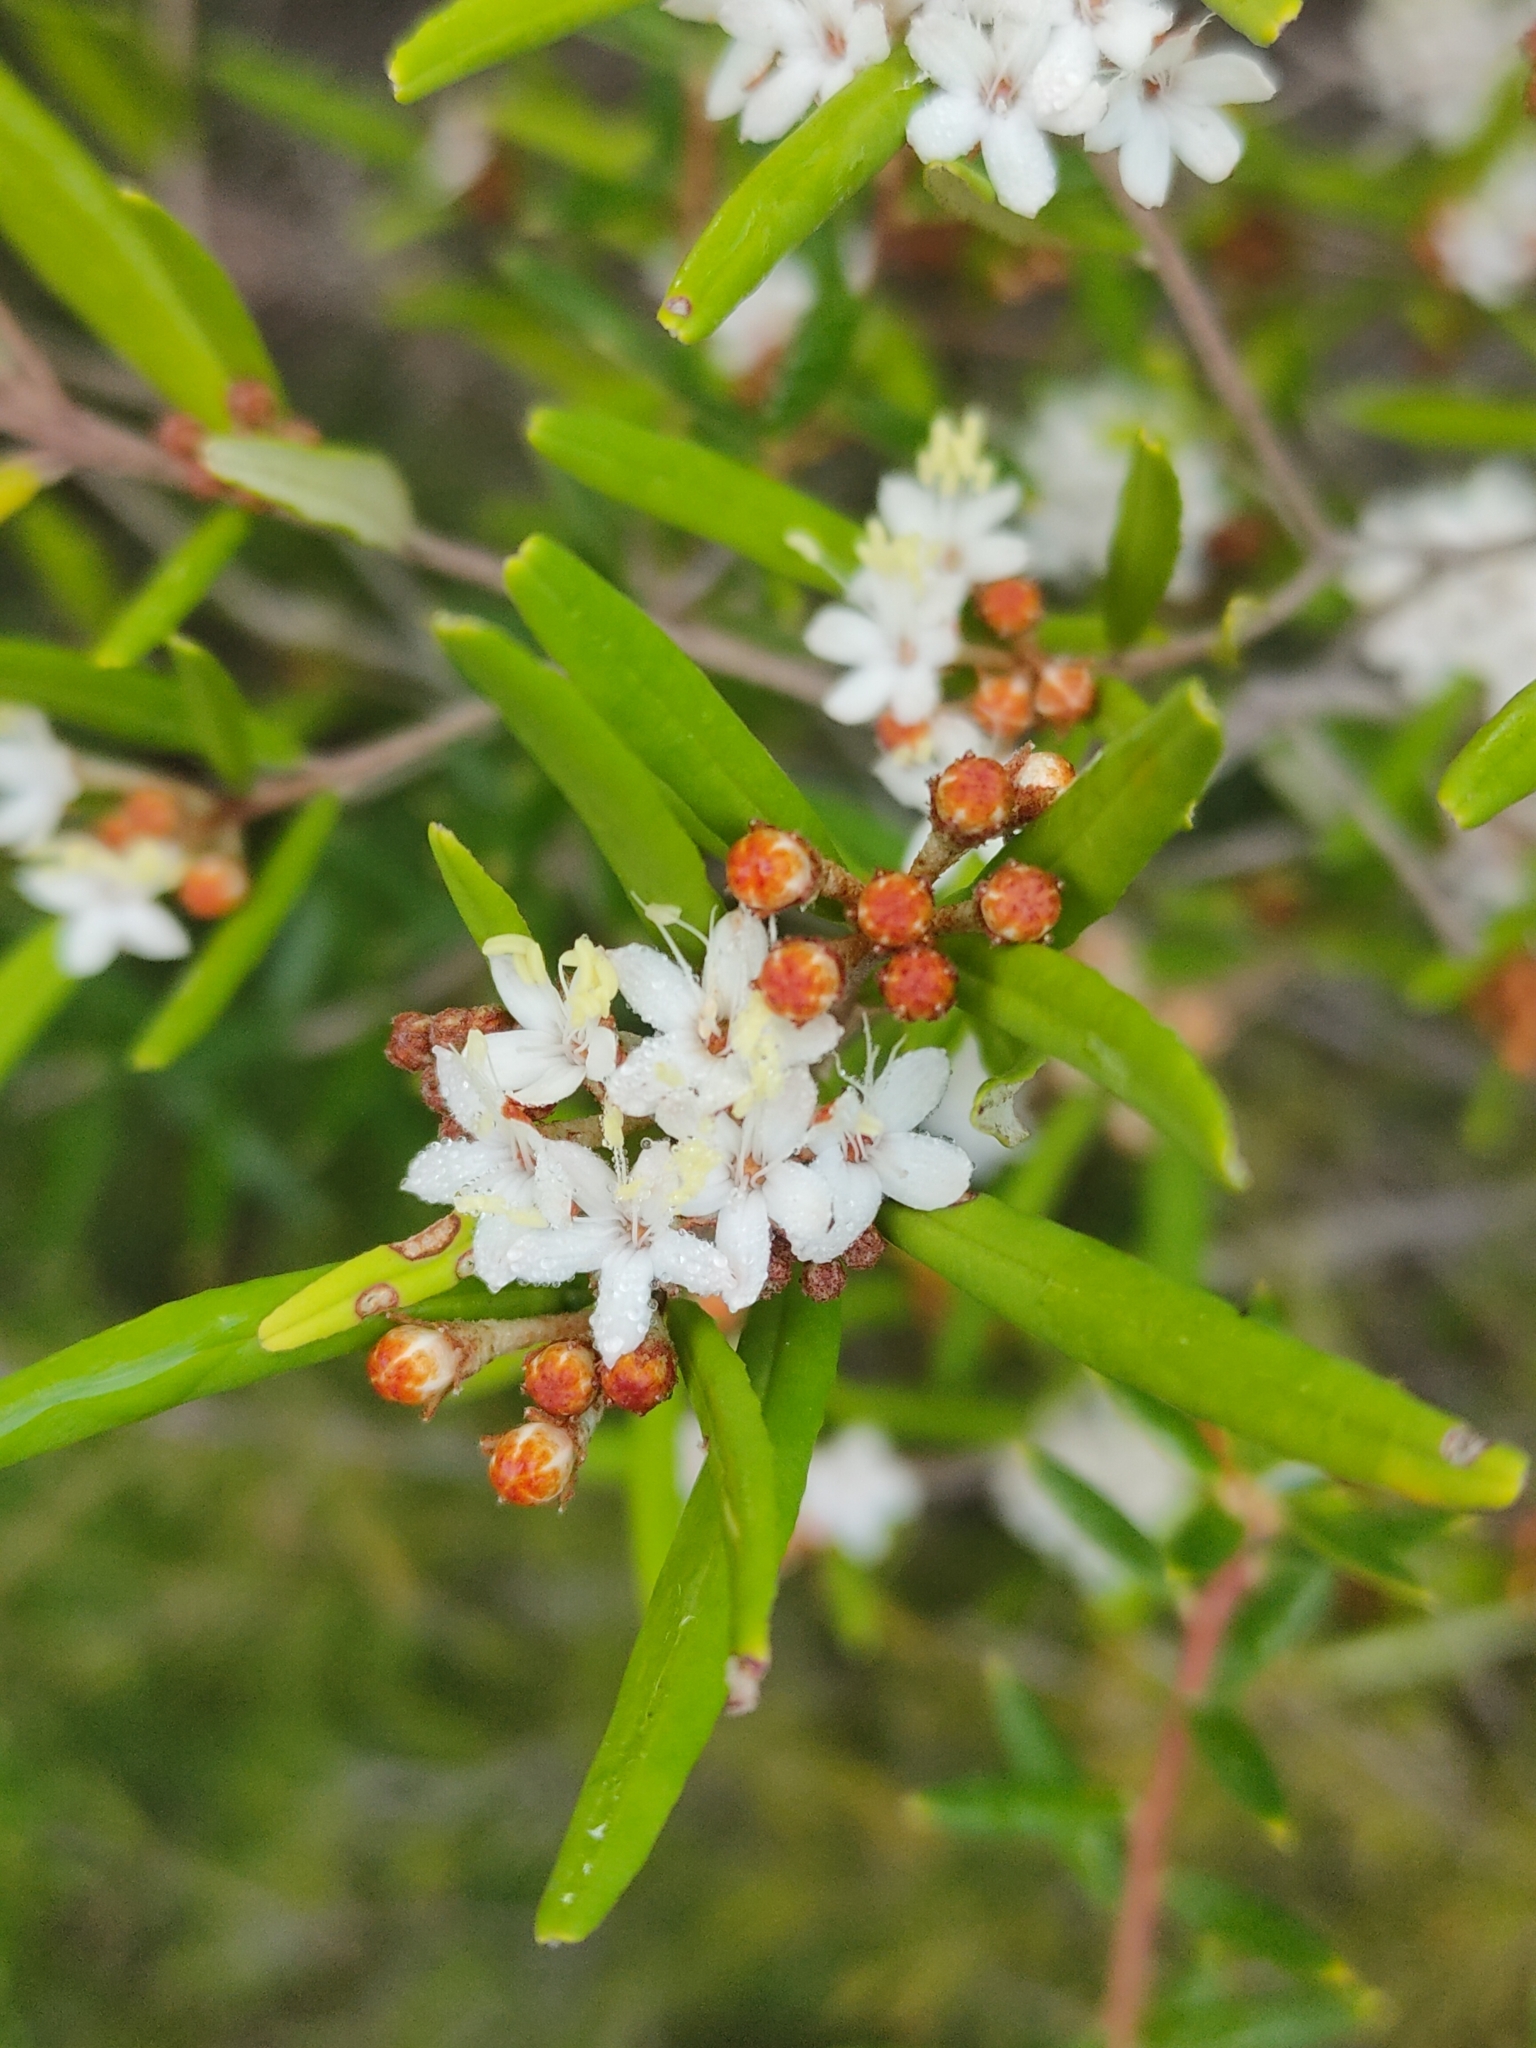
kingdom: Plantae
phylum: Tracheophyta
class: Magnoliopsida
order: Sapindales
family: Rutaceae
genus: Phebalium
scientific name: Phebalium woombye
